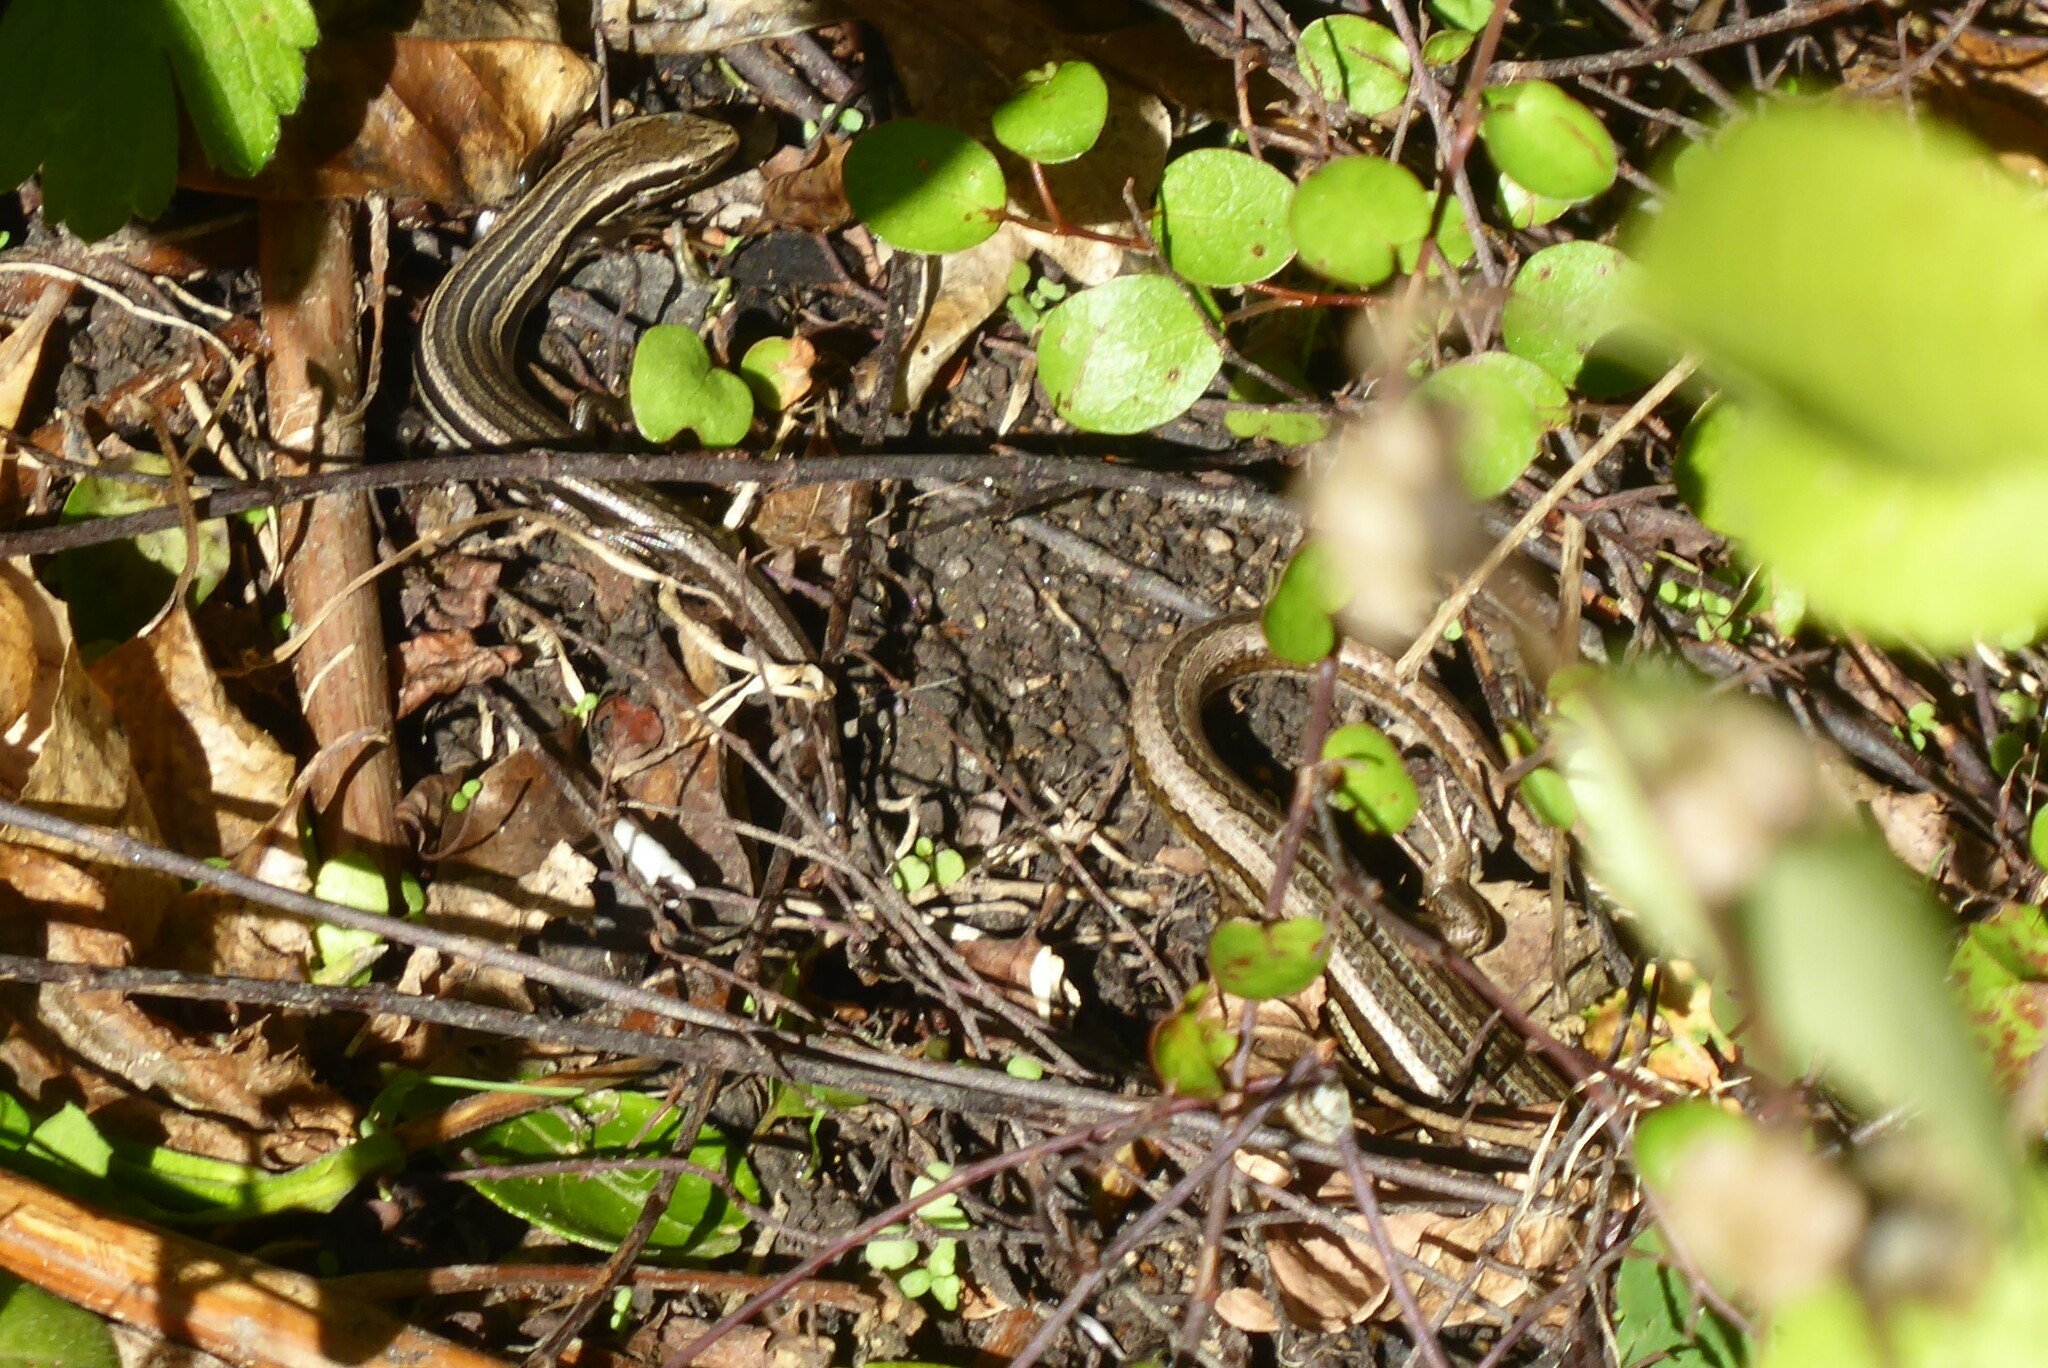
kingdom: Animalia
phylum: Chordata
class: Squamata
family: Scincidae
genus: Oligosoma
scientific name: Oligosoma polychroma
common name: Common new zealand skink
